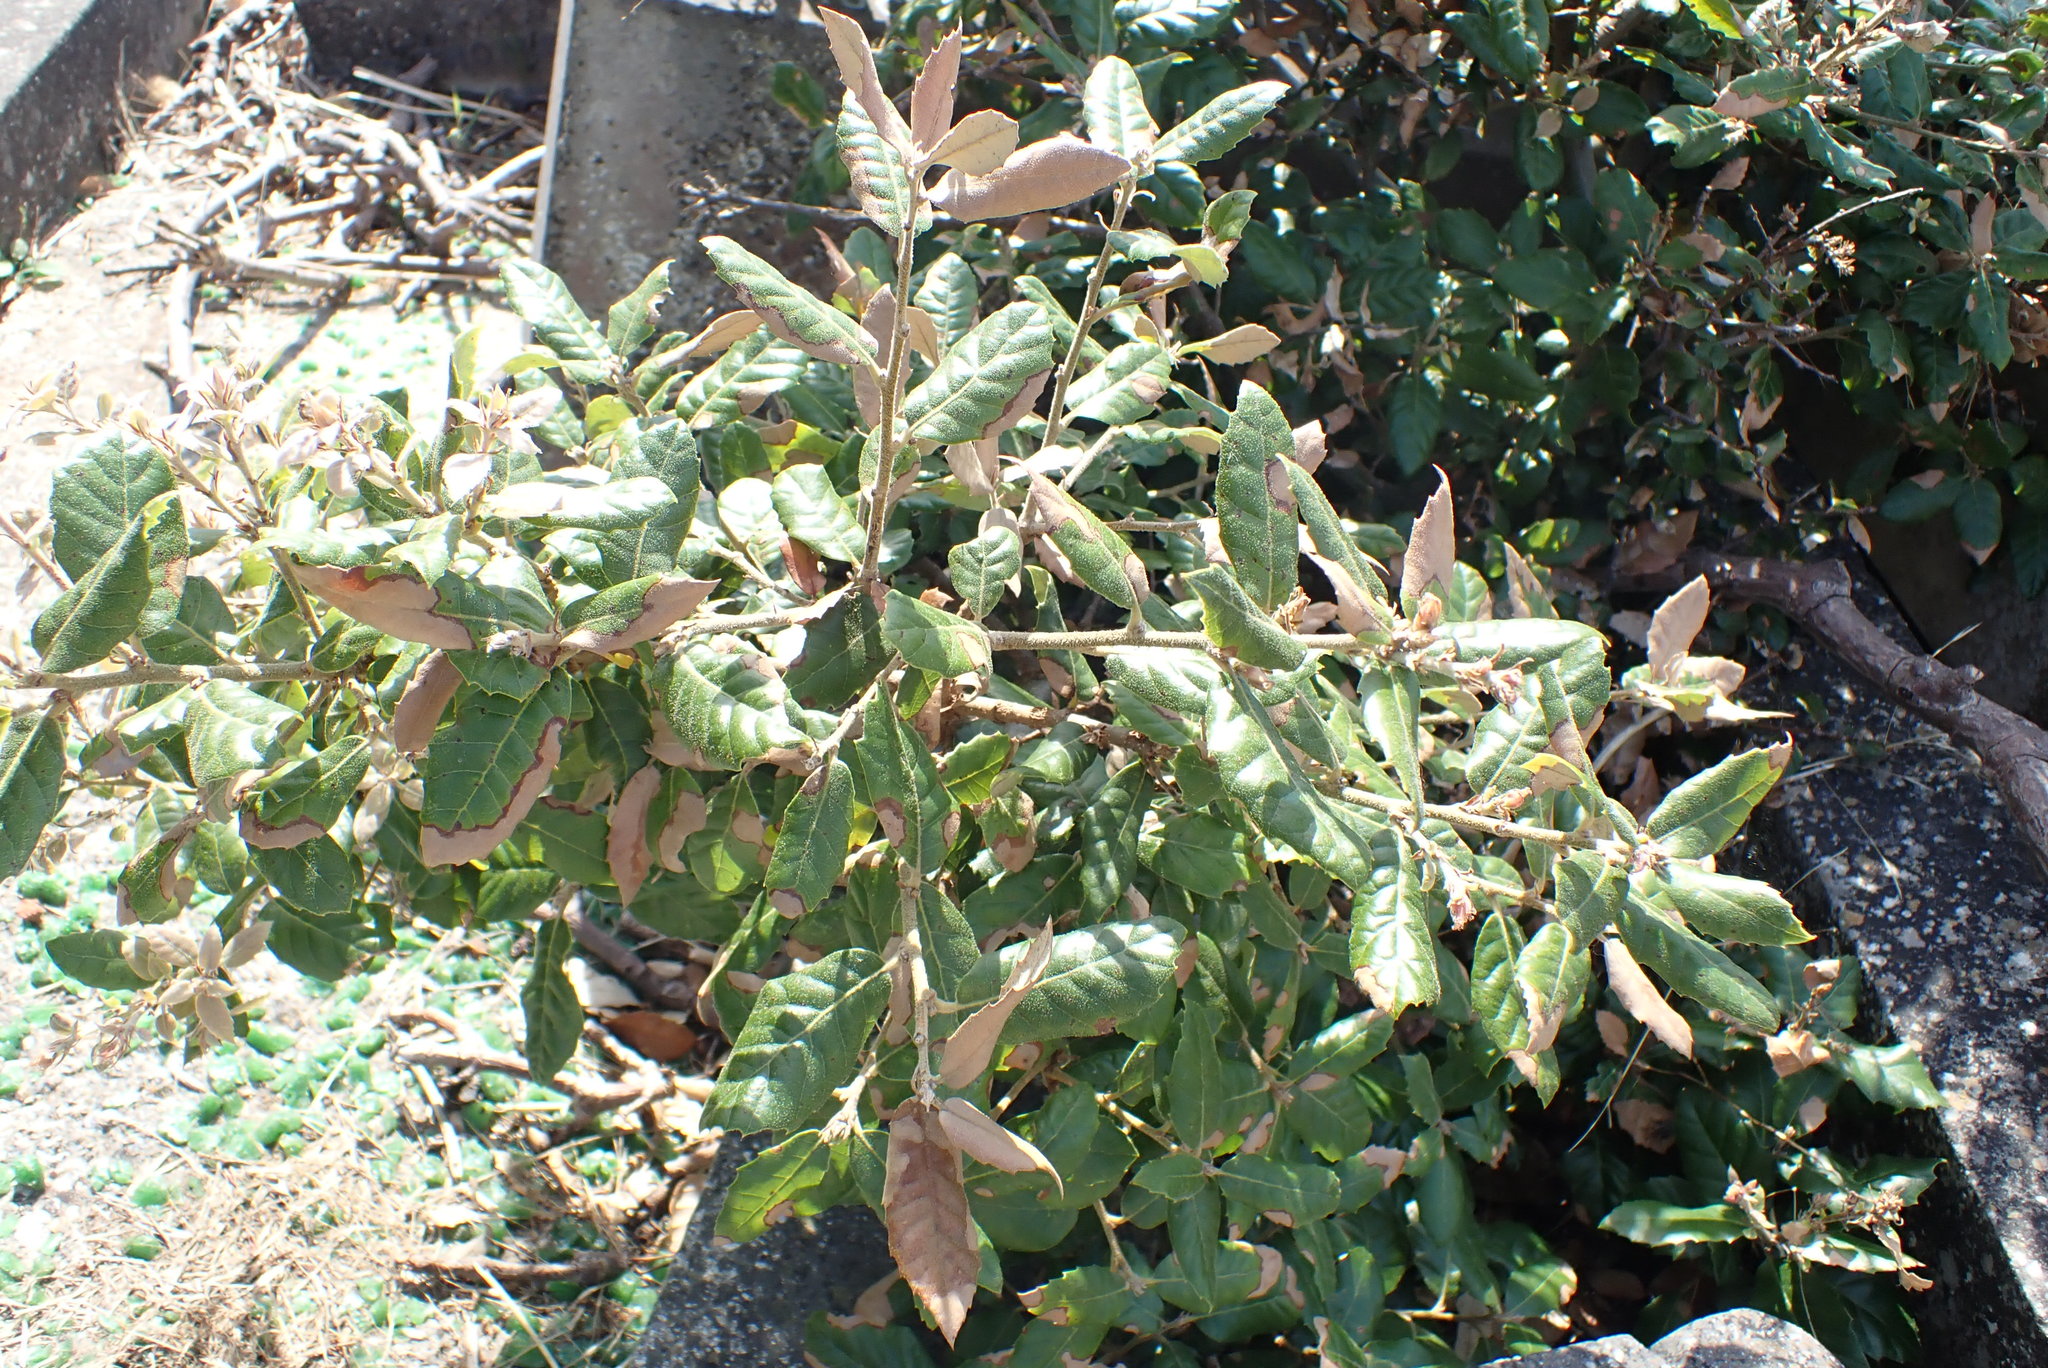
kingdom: Plantae
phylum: Tracheophyta
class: Magnoliopsida
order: Fagales
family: Fagaceae
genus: Quercus
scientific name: Quercus ilex
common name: Evergreen oak
